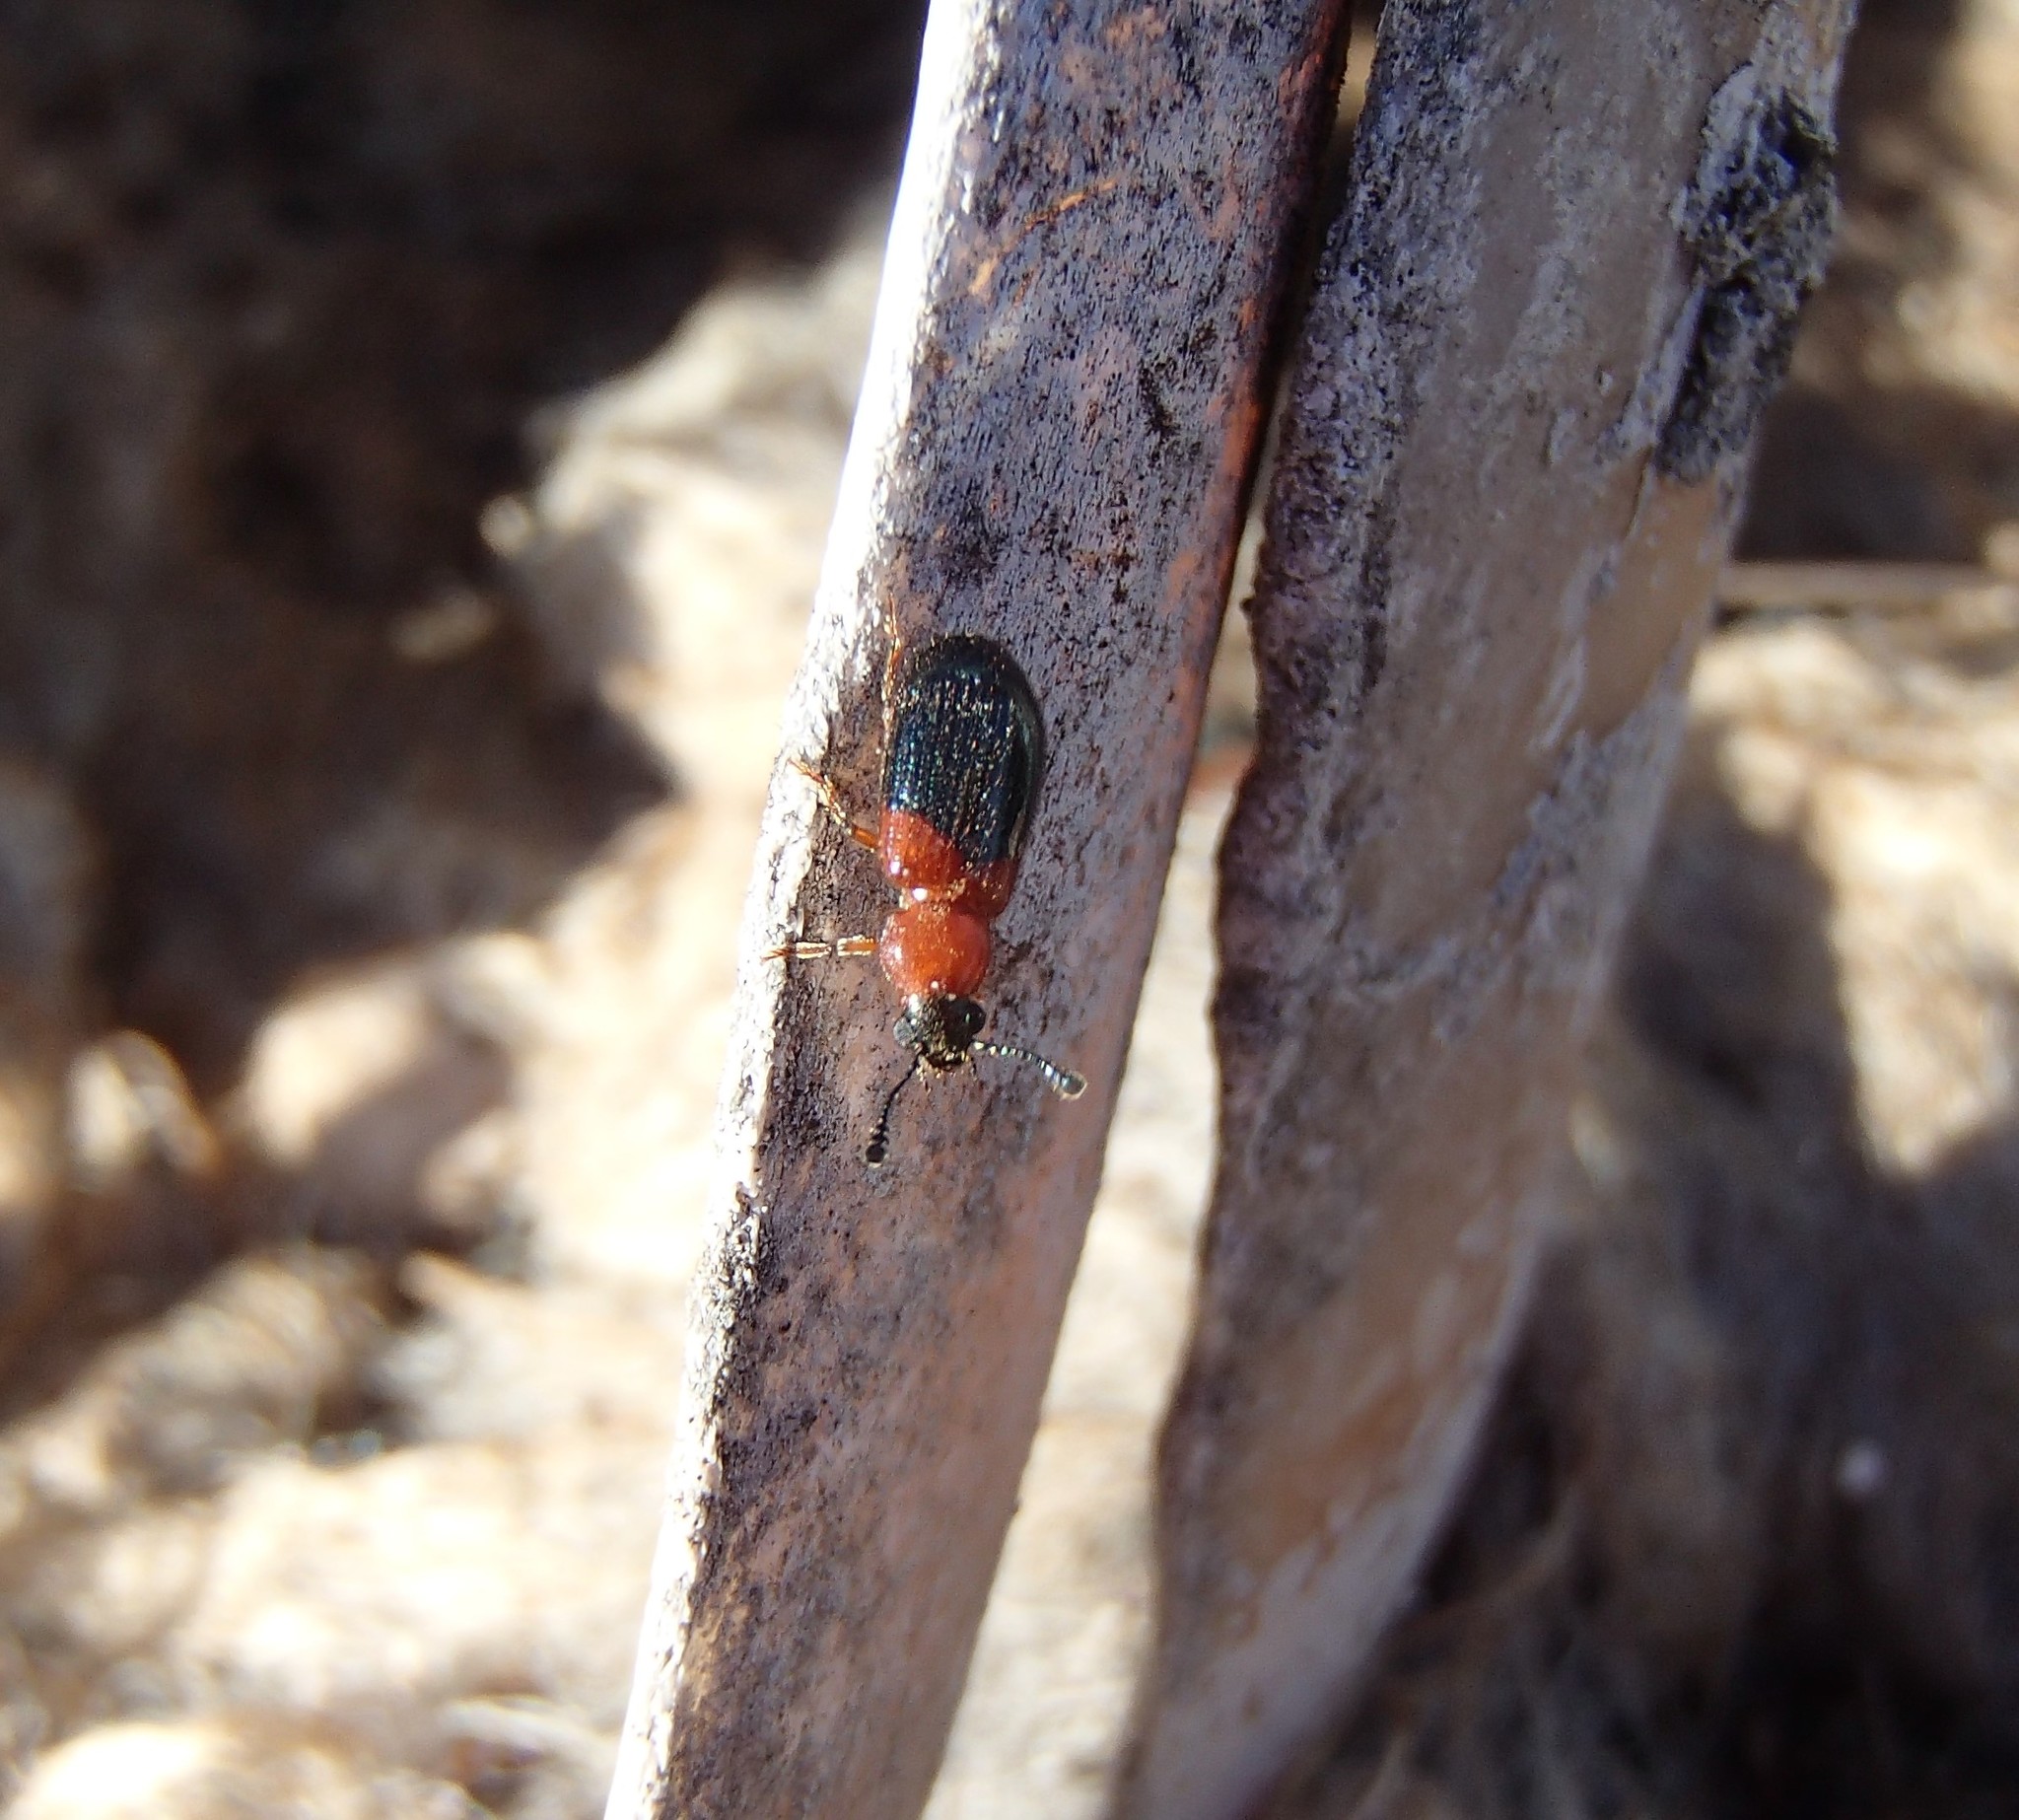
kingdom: Animalia
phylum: Arthropoda
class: Insecta
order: Coleoptera
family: Cleridae
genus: Necrobia
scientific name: Necrobia ruficollis
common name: Redshouldered ham beetle
